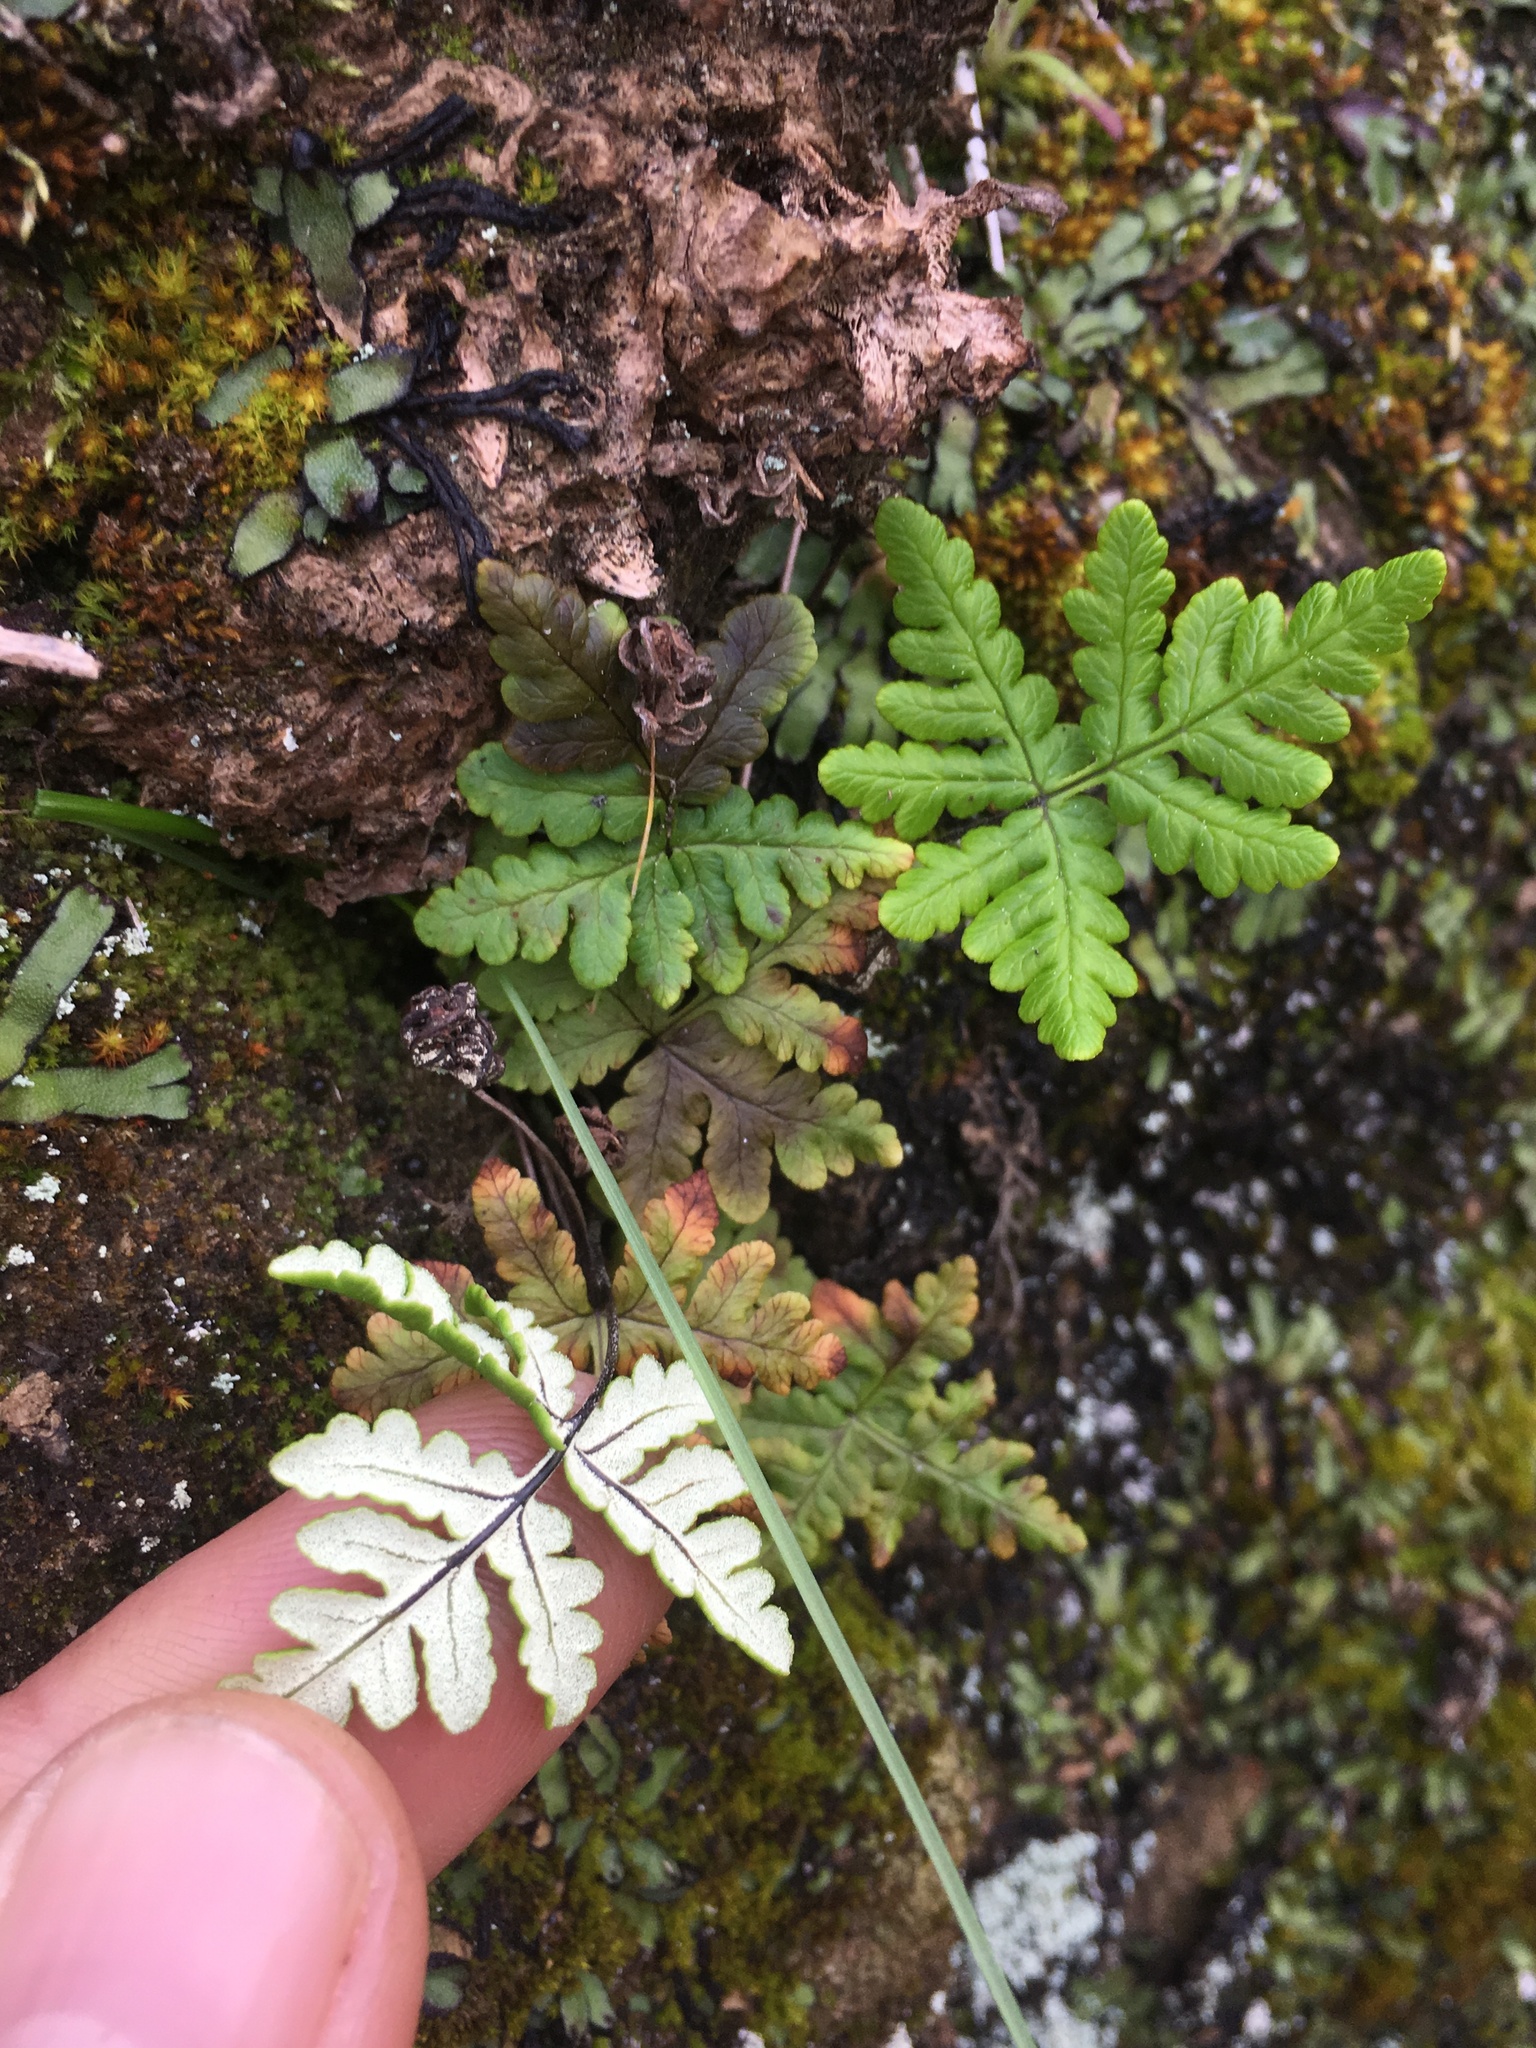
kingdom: Plantae
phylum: Tracheophyta
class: Polypodiopsida
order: Polypodiales
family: Pteridaceae
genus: Pentagramma
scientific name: Pentagramma triangularis
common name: Gold fern
